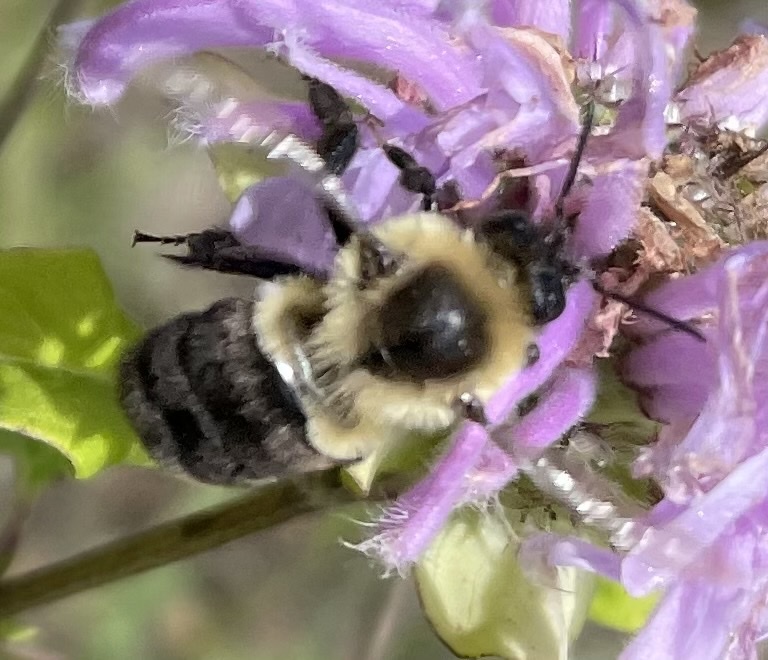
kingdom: Animalia
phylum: Arthropoda
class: Insecta
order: Hymenoptera
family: Apidae
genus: Bombus
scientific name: Bombus impatiens
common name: Common eastern bumble bee
